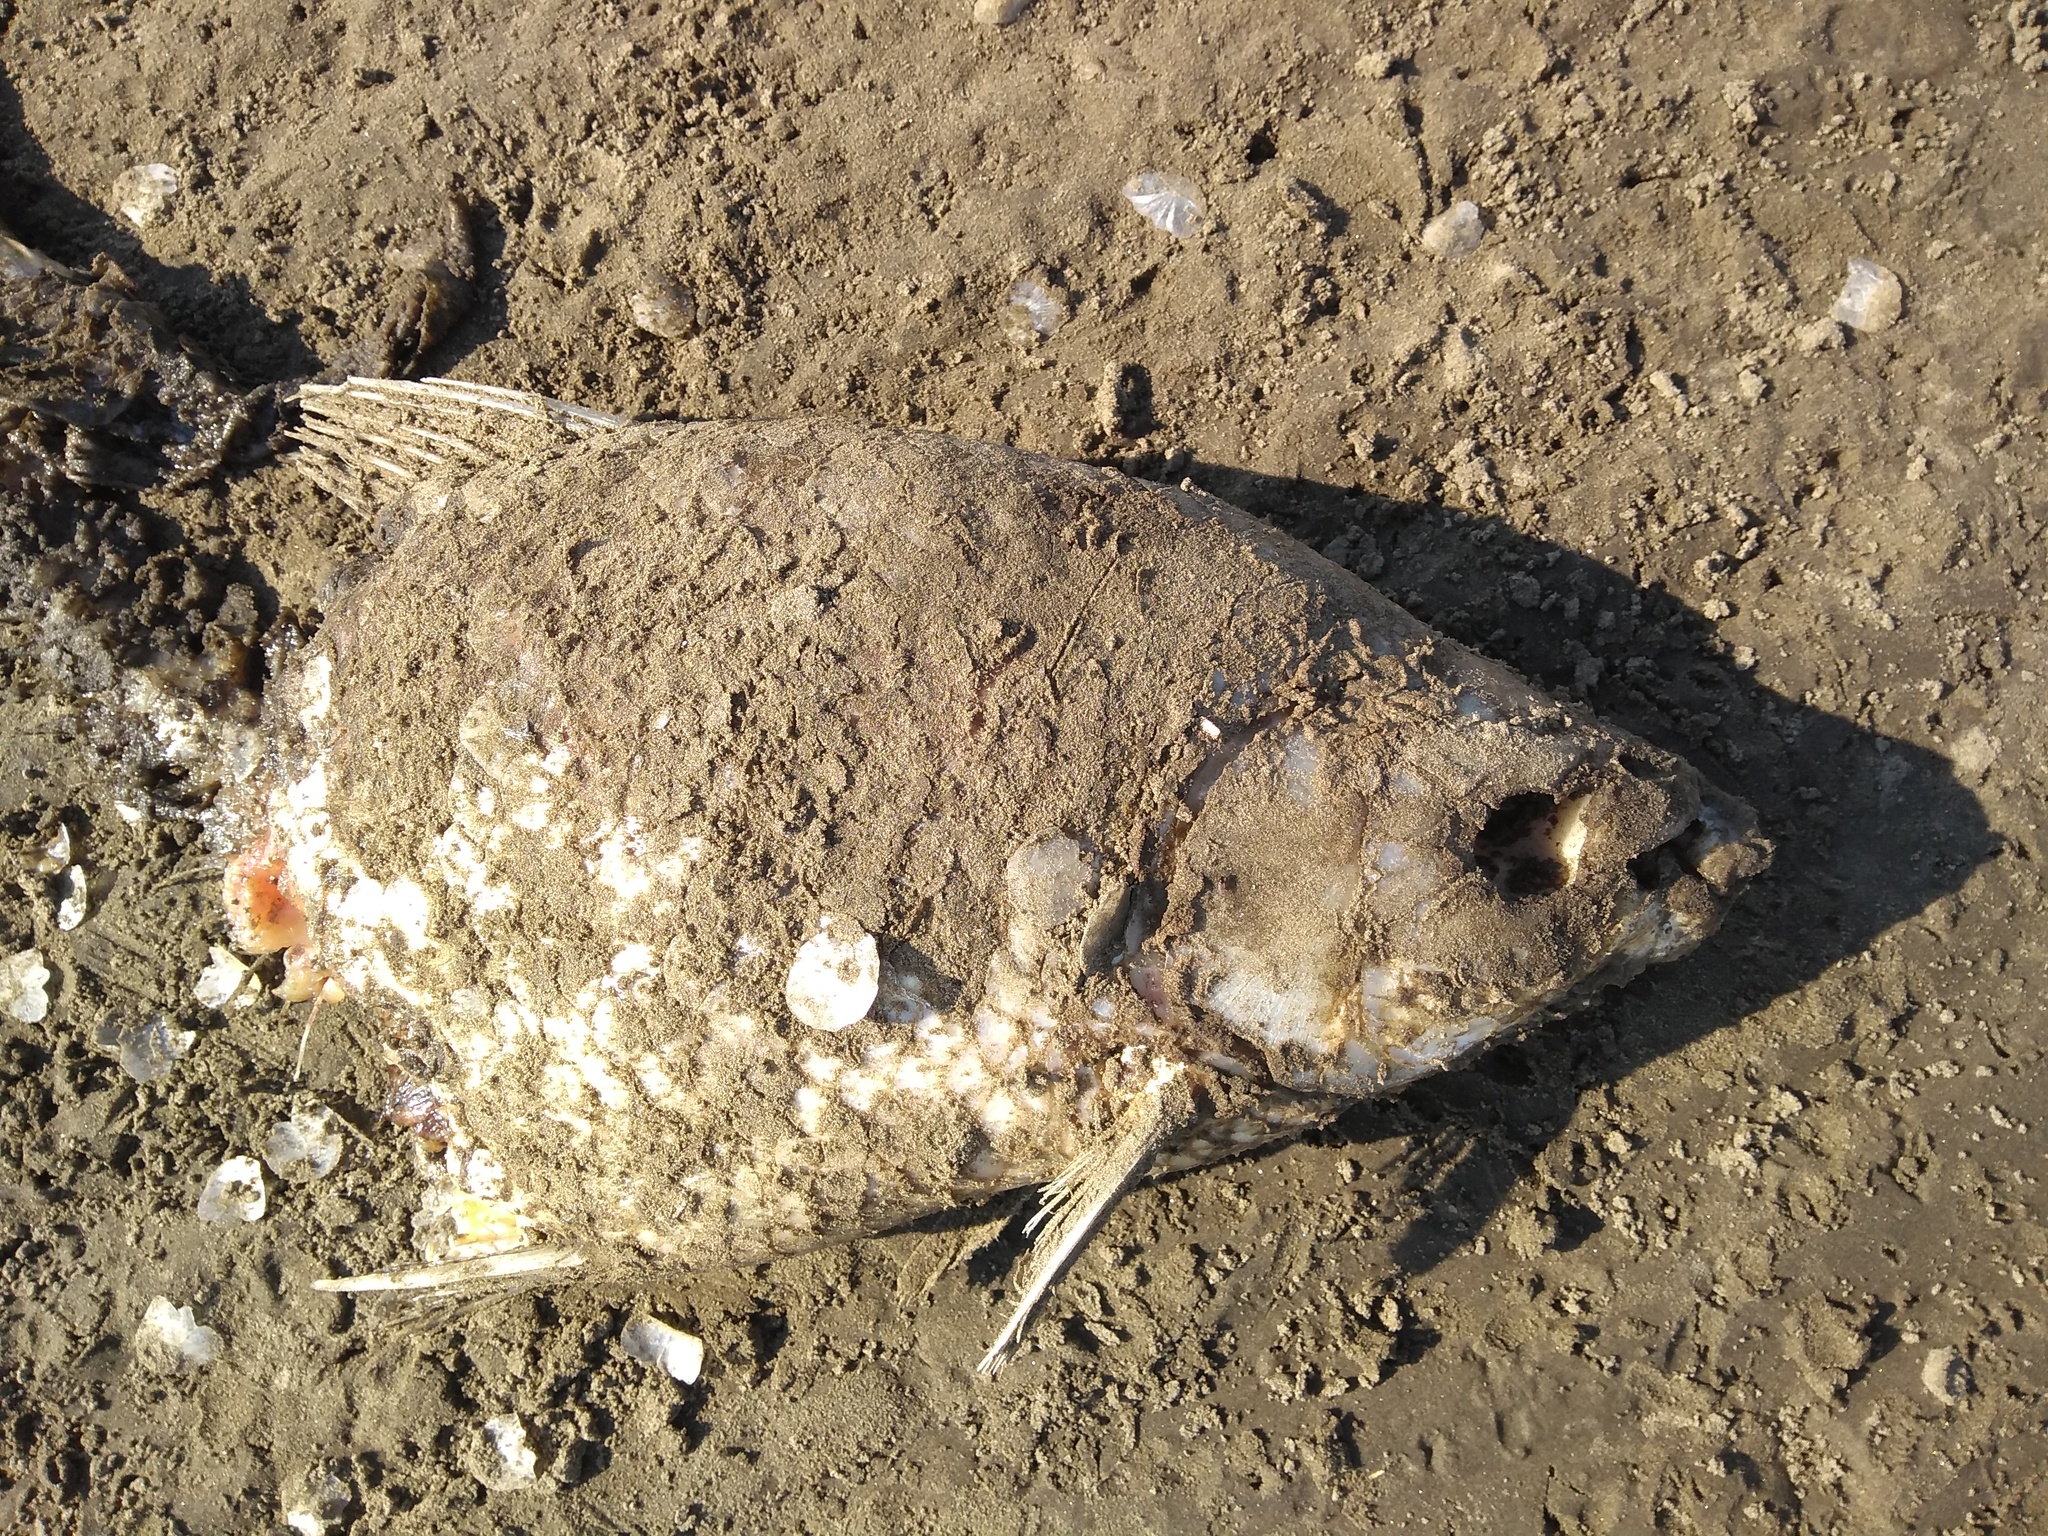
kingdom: Animalia
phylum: Chordata
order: Characiformes
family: Prochilodontidae
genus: Prochilodus
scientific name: Prochilodus lineatus
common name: Curimbata
